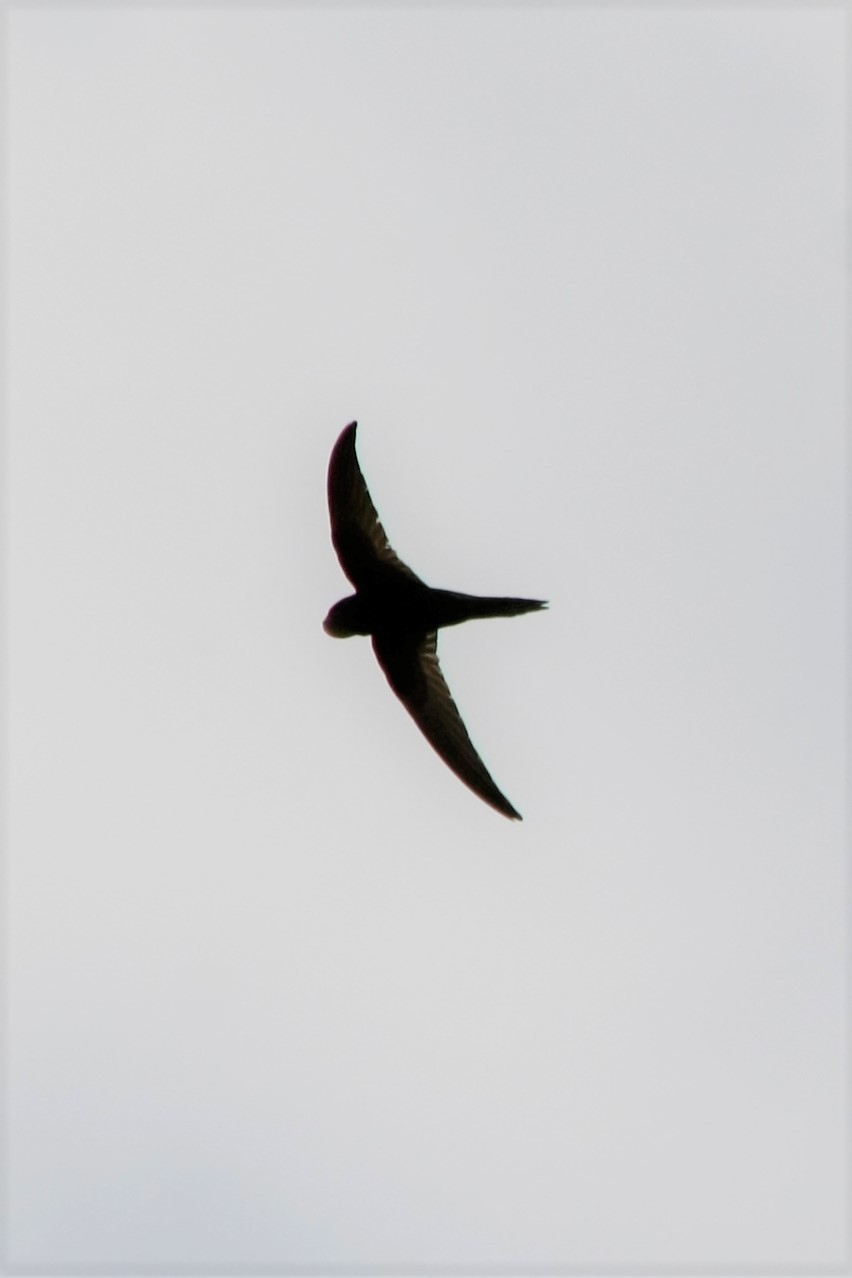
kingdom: Animalia
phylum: Chordata
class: Aves
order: Apodiformes
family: Apodidae
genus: Apus
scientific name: Apus apus
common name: Common swift
